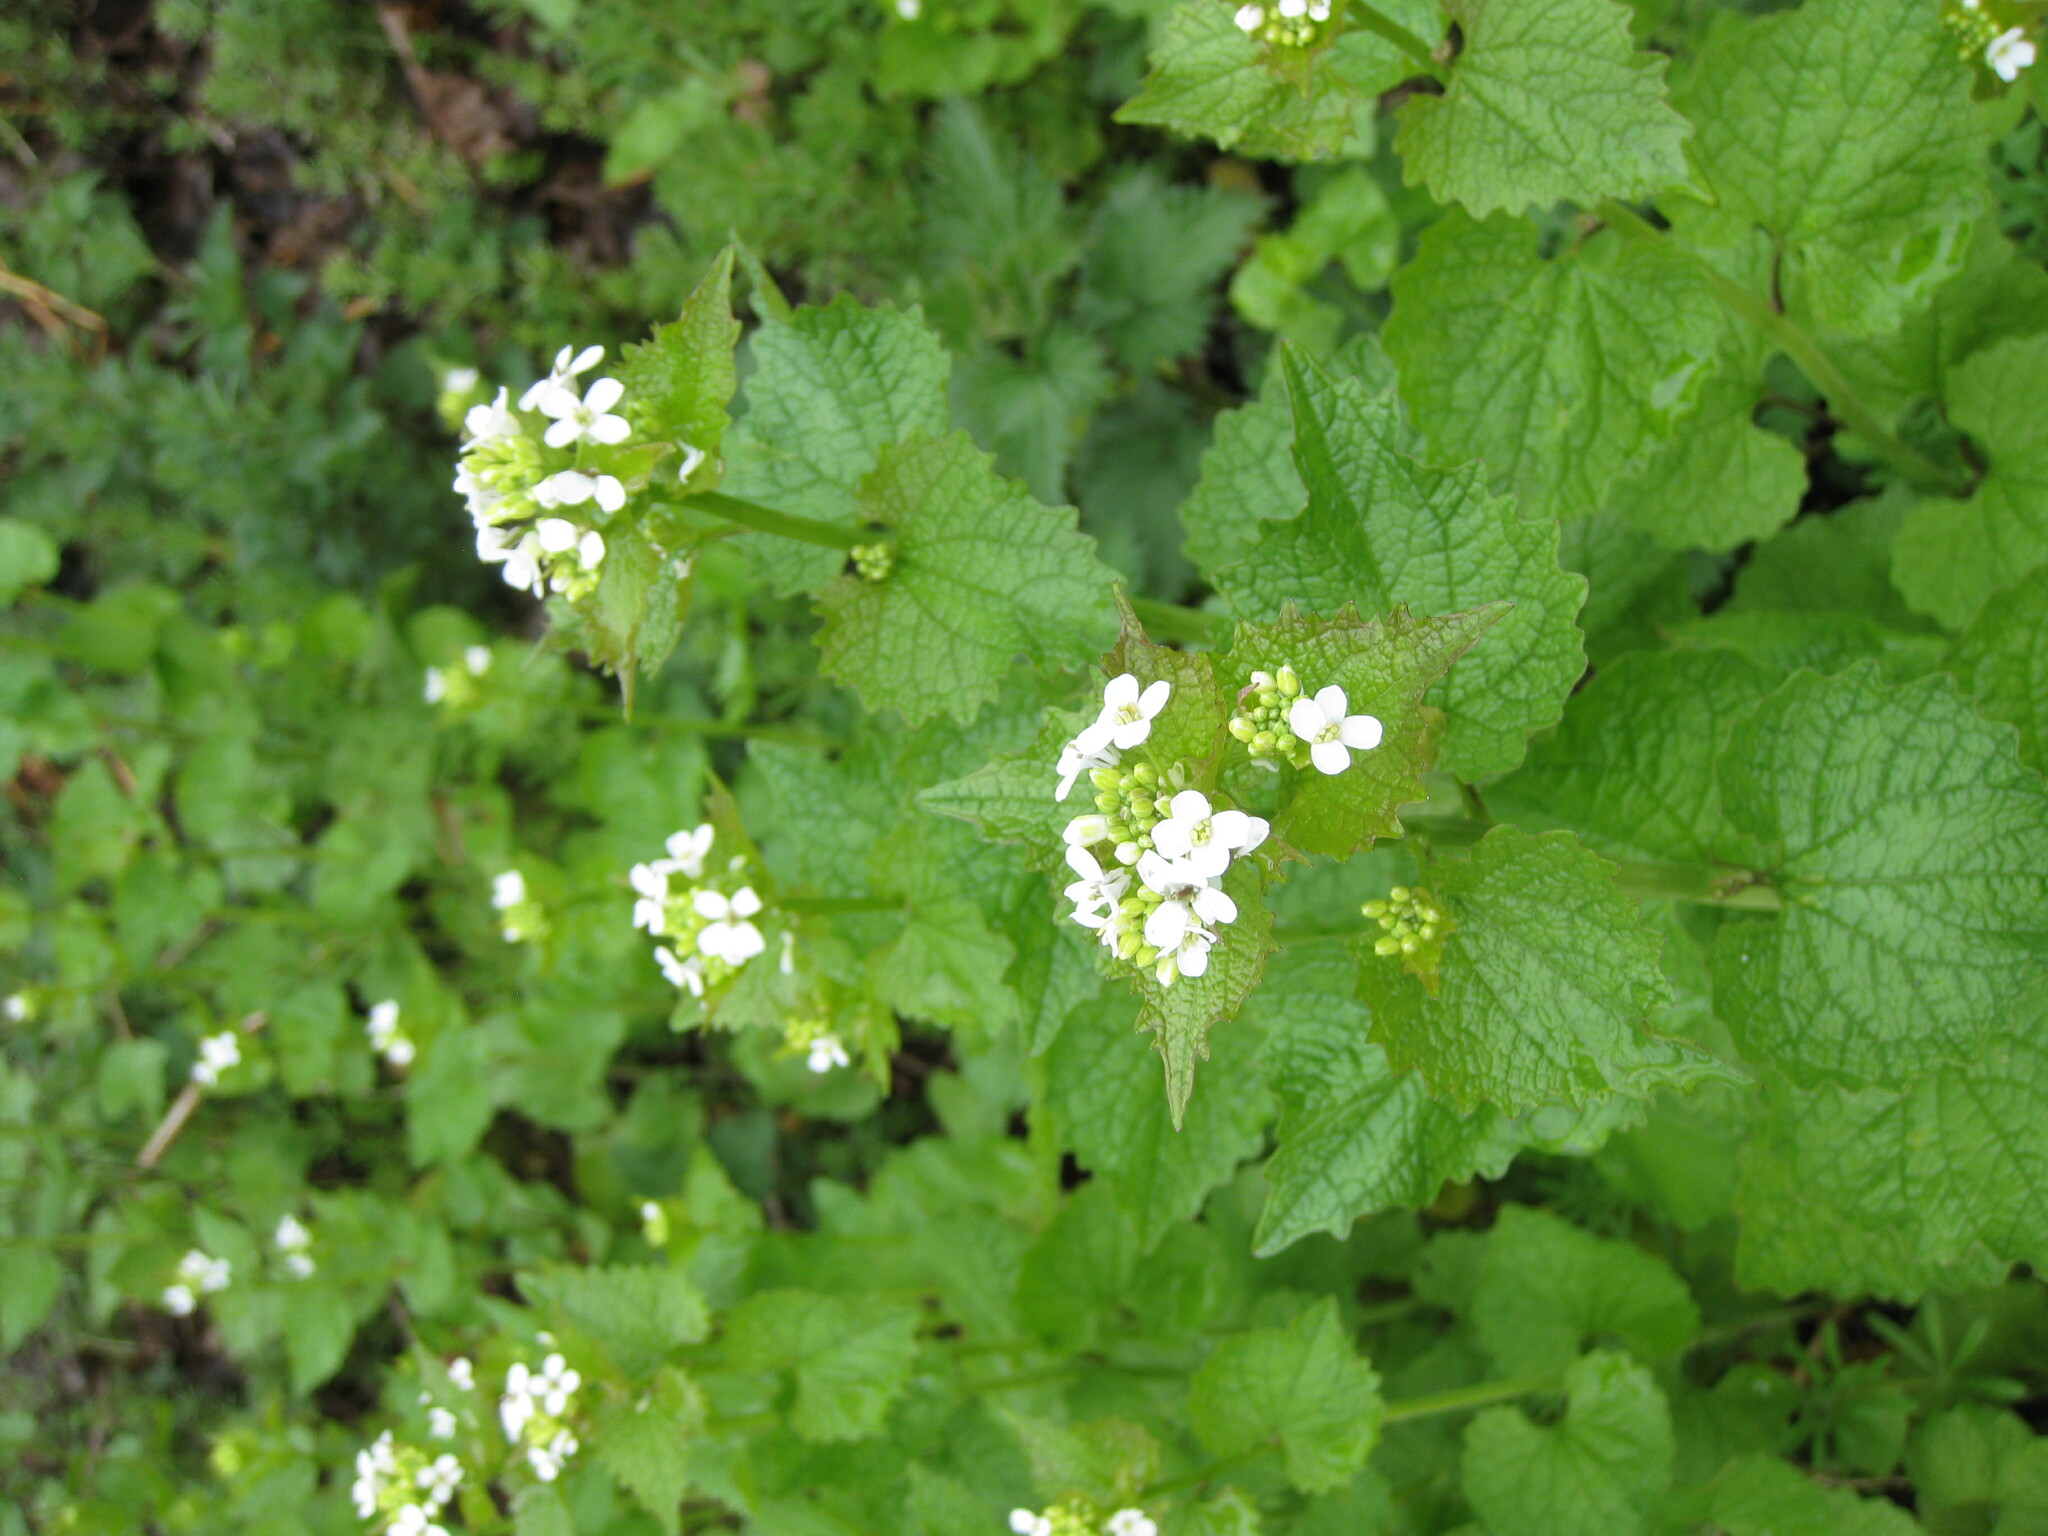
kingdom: Plantae
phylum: Tracheophyta
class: Magnoliopsida
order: Brassicales
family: Brassicaceae
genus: Alliaria
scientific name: Alliaria petiolata
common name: Garlic mustard
